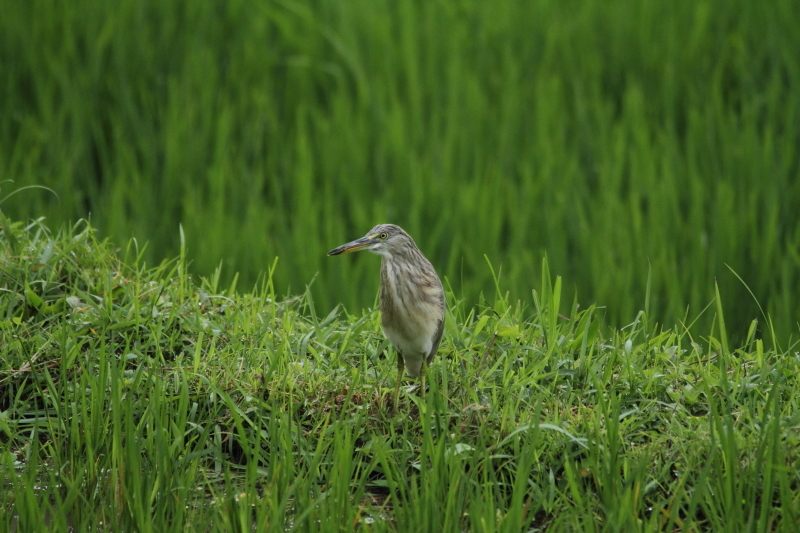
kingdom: Animalia
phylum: Chordata
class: Aves
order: Pelecaniformes
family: Ardeidae
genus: Ardeola
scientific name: Ardeola speciosa
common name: Javan pond heron
